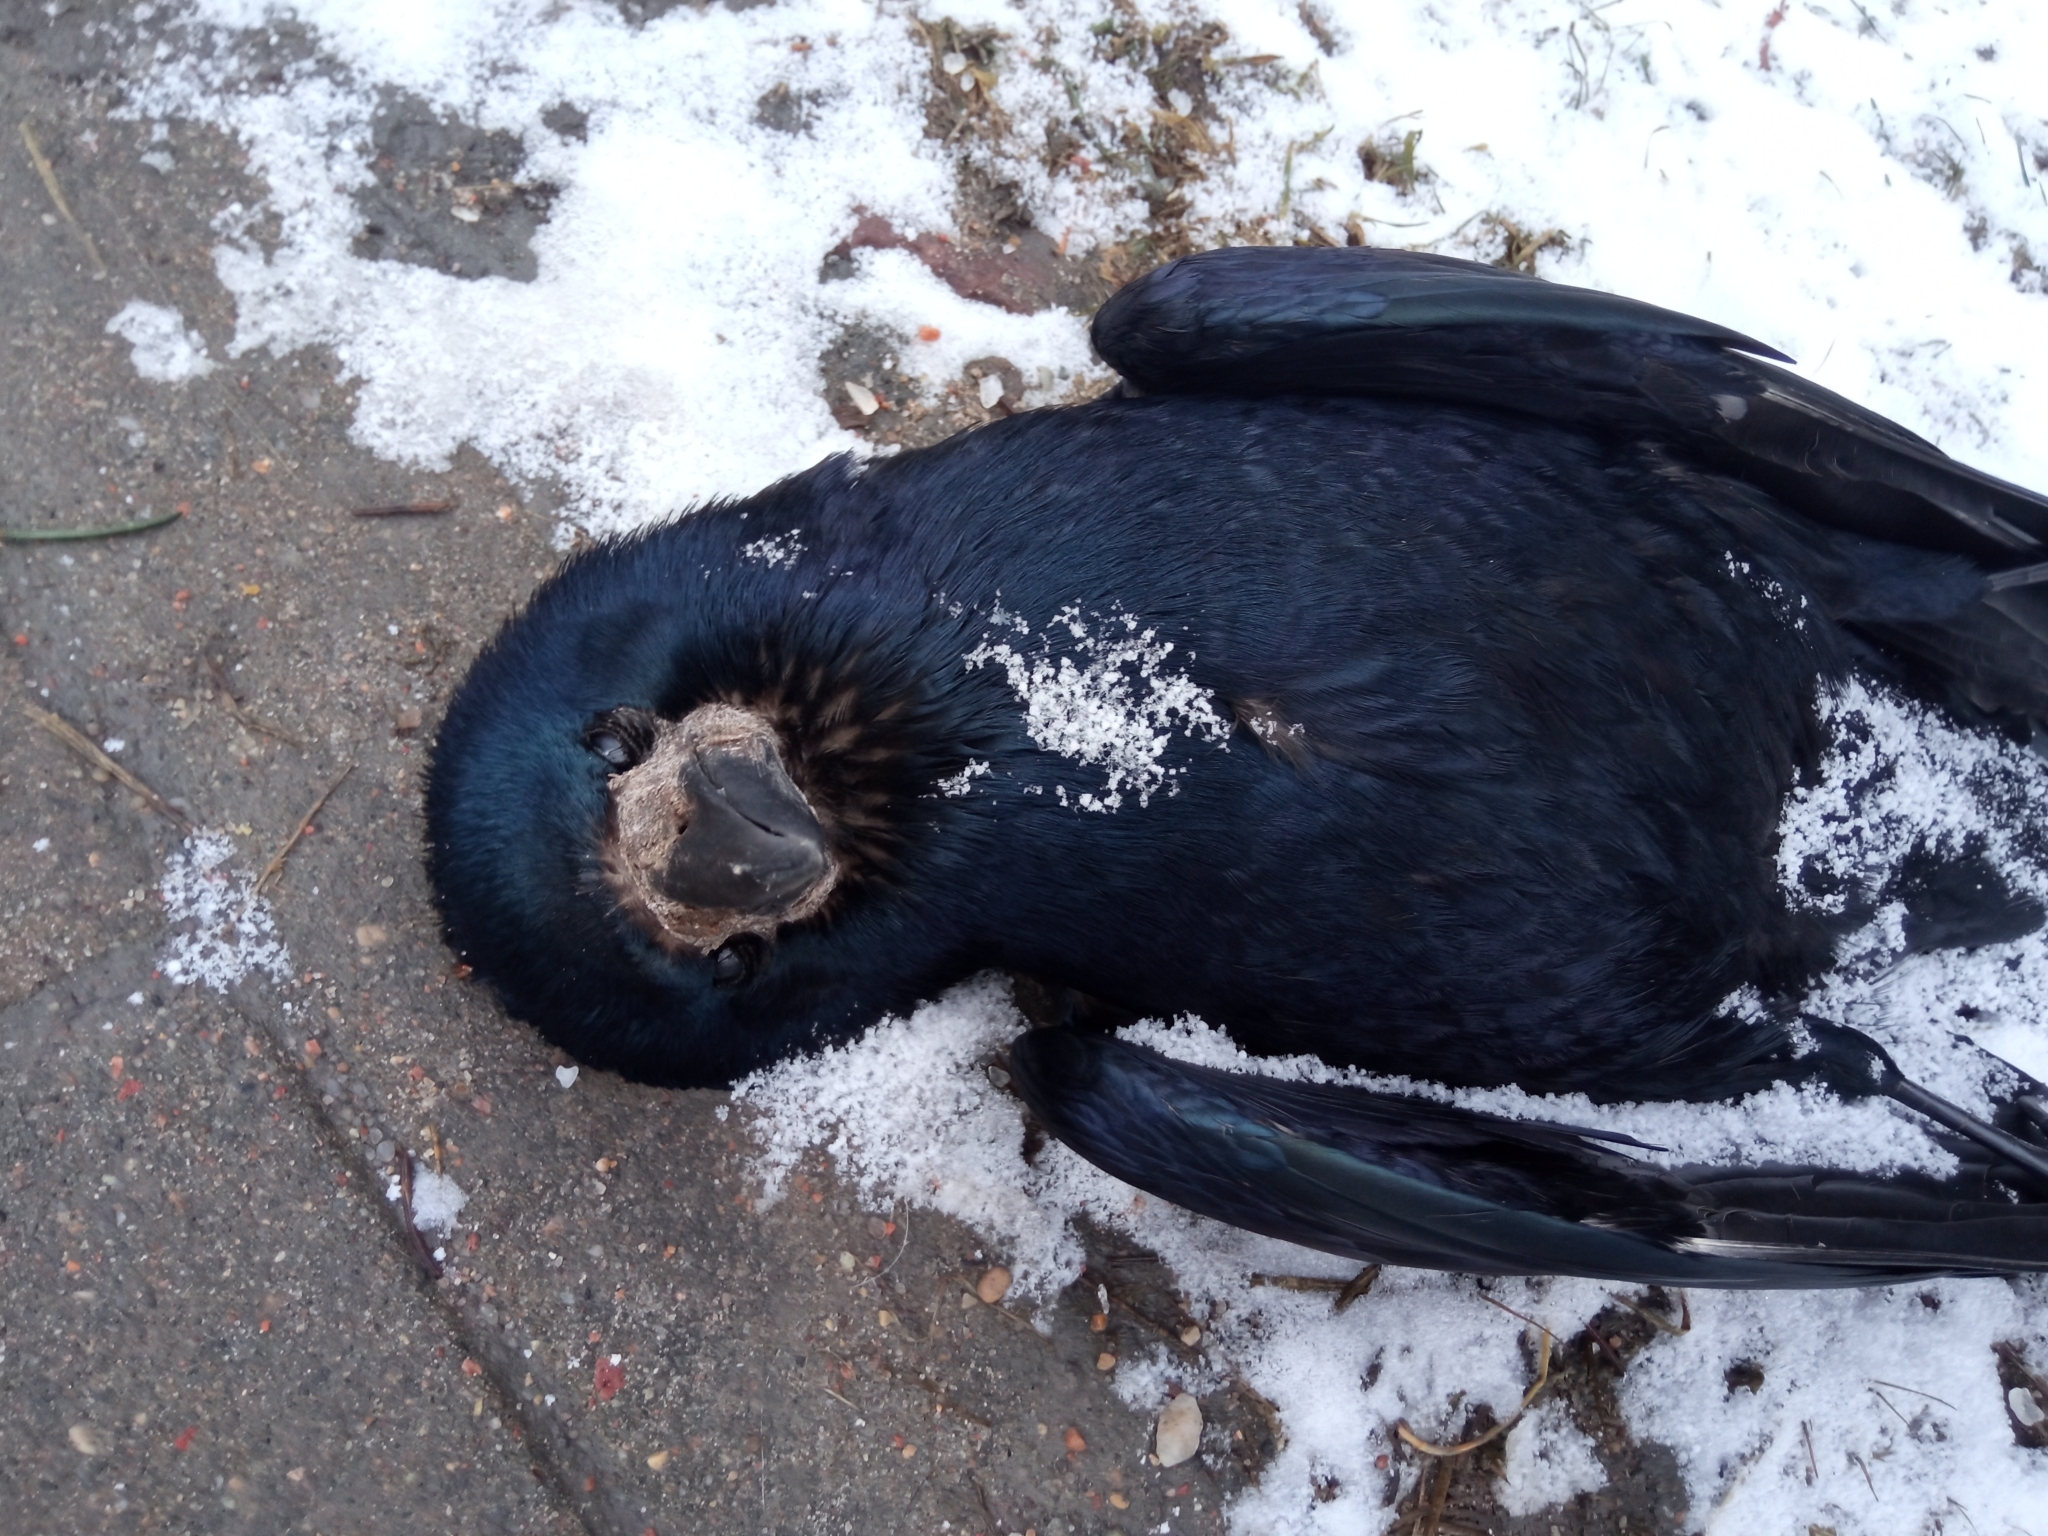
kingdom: Animalia
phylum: Chordata
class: Aves
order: Passeriformes
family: Corvidae
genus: Corvus
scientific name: Corvus frugilegus
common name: Rook
